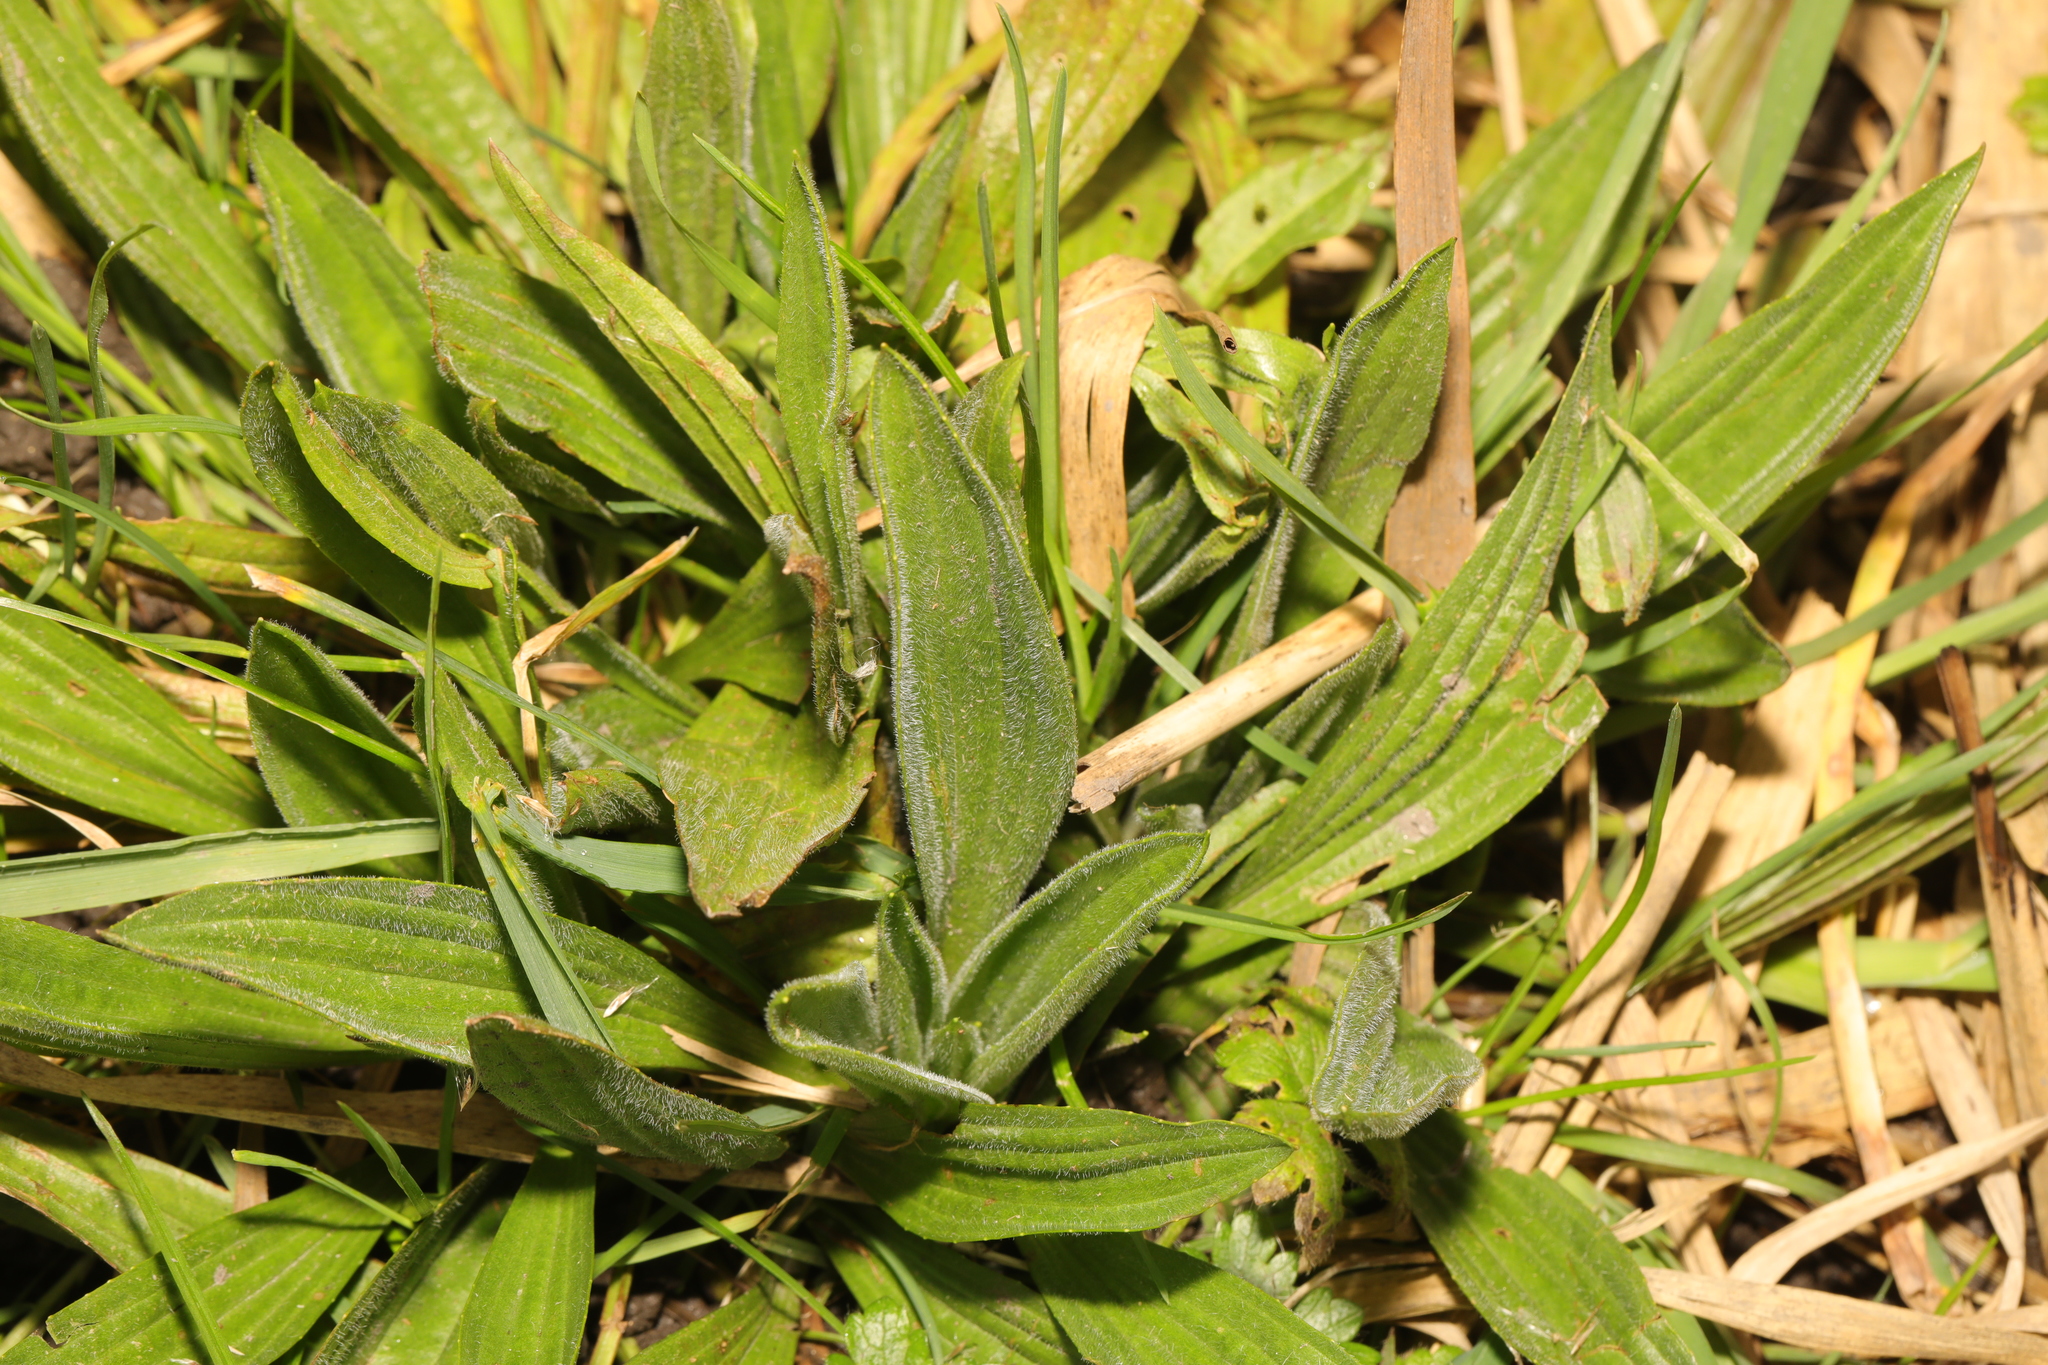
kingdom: Plantae
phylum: Tracheophyta
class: Magnoliopsida
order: Lamiales
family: Plantaginaceae
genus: Plantago
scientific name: Plantago lanceolata
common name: Ribwort plantain
